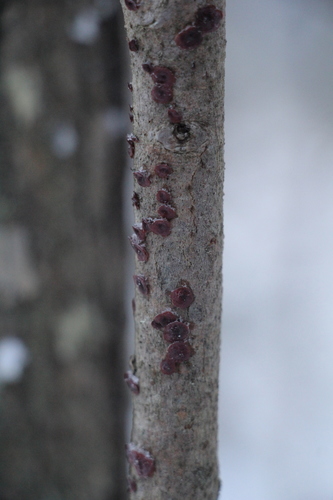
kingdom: Fungi
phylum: Basidiomycota
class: Agaricomycetes
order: Corticiales
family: Vuilleminiaceae
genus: Cytidia
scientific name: Cytidia salicina
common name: Scarlet splash
